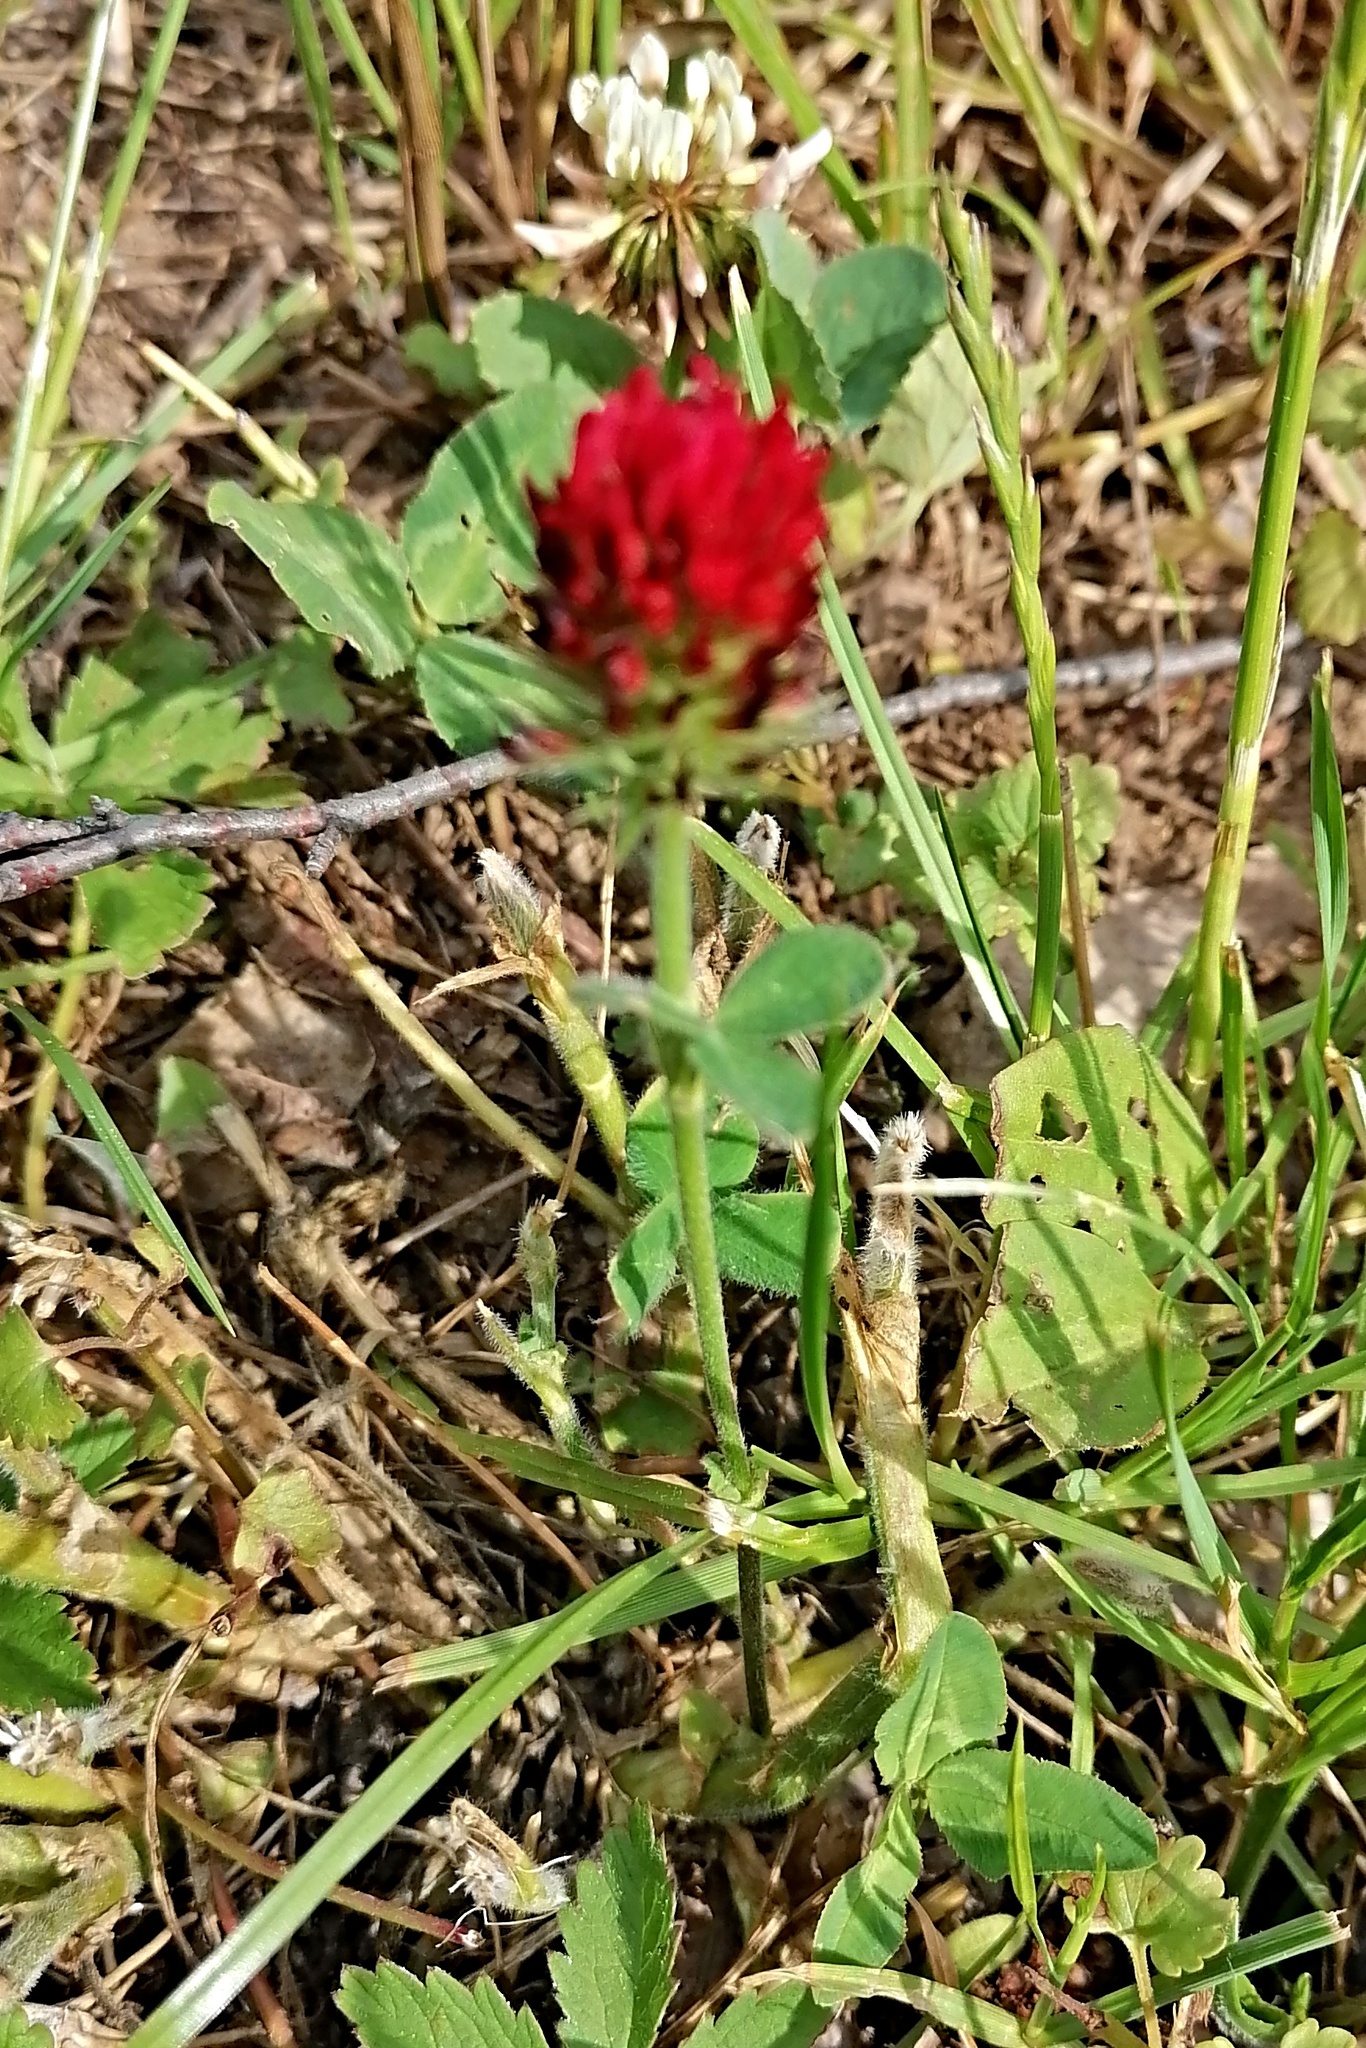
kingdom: Plantae
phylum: Tracheophyta
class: Magnoliopsida
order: Fabales
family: Fabaceae
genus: Trifolium
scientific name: Trifolium incarnatum
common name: Crimson clover
